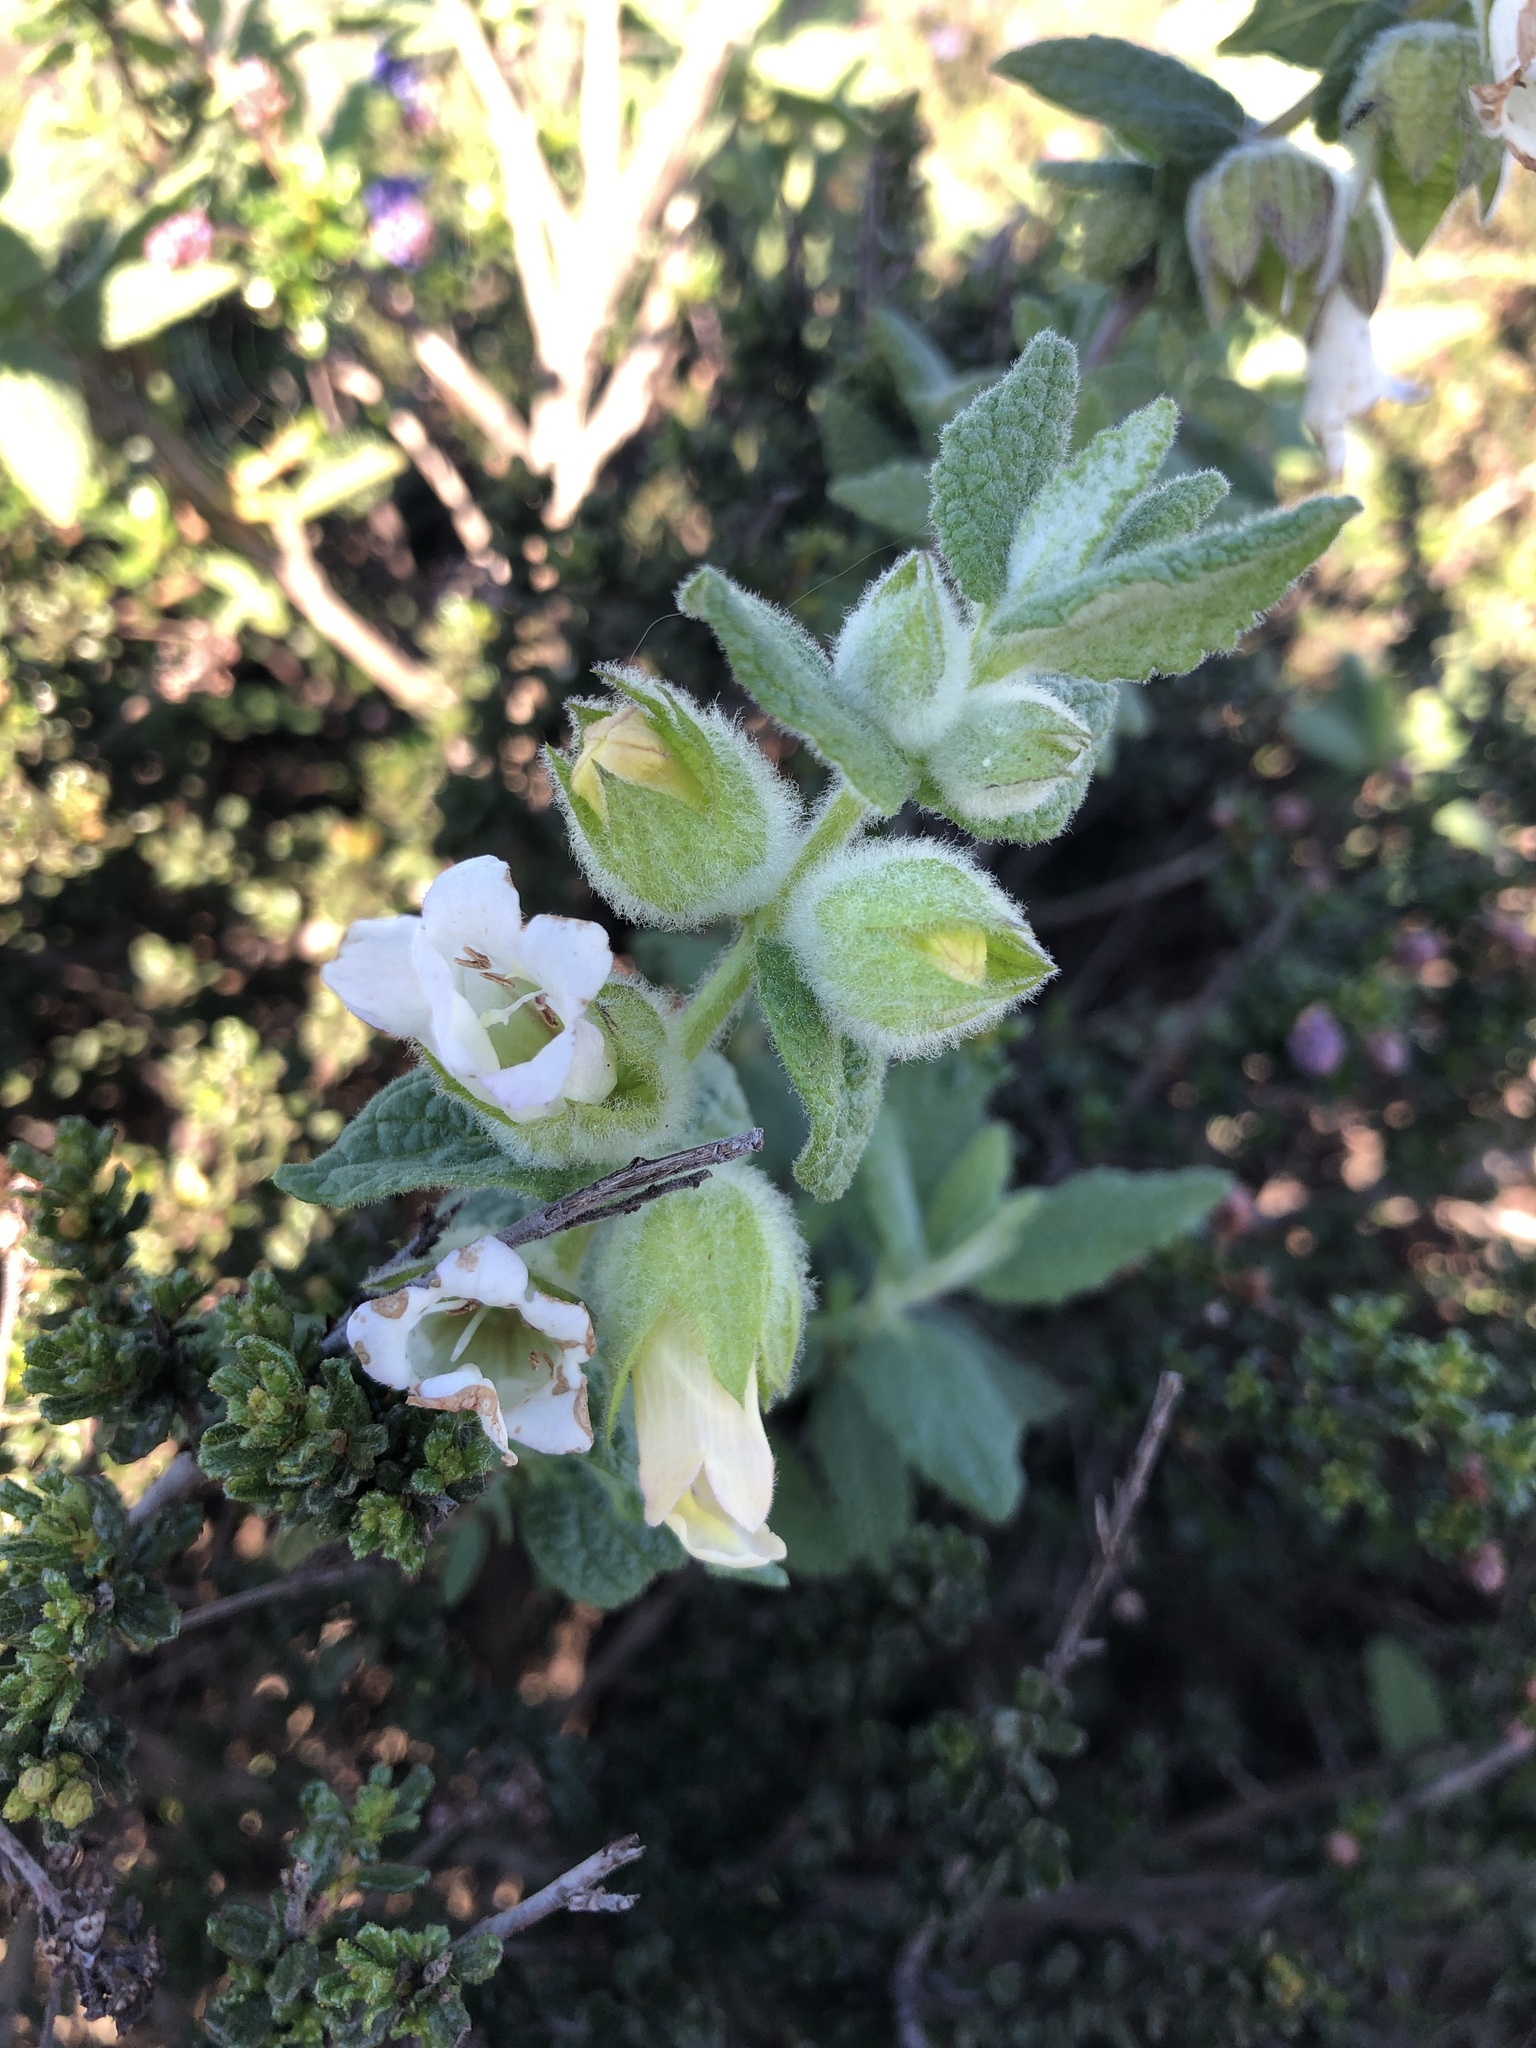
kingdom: Plantae
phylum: Tracheophyta
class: Magnoliopsida
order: Lamiales
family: Lamiaceae
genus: Lepechinia
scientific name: Lepechinia calycina
